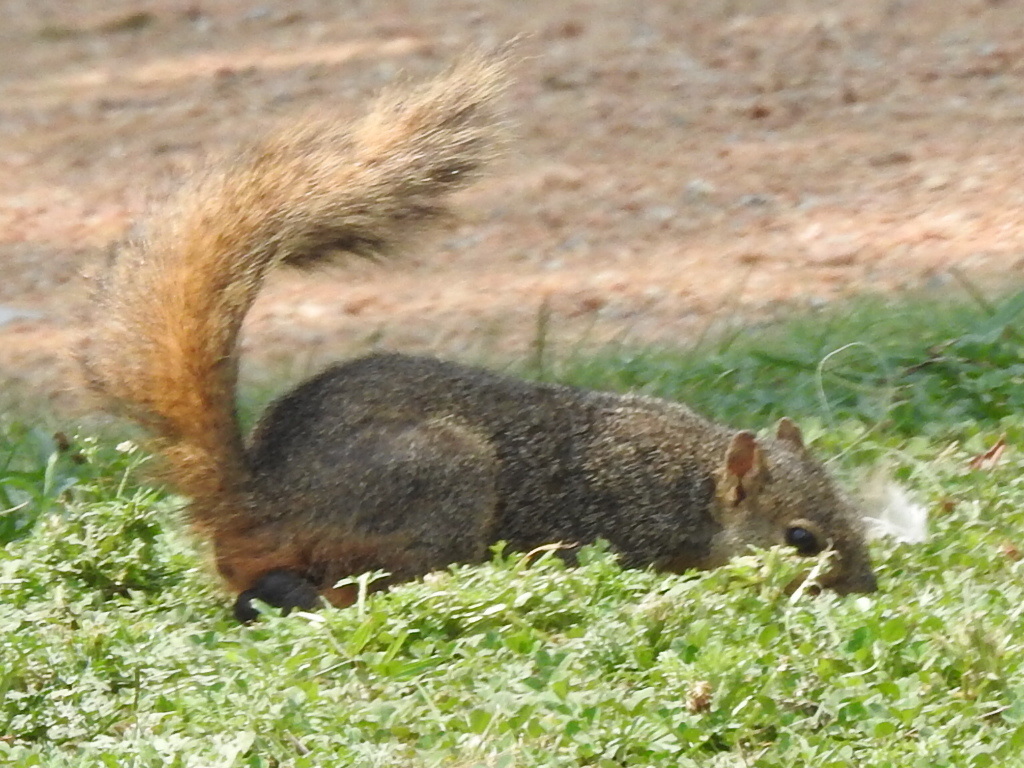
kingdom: Animalia
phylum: Chordata
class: Mammalia
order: Rodentia
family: Sciuridae
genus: Sciurus
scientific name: Sciurus niger
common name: Fox squirrel
